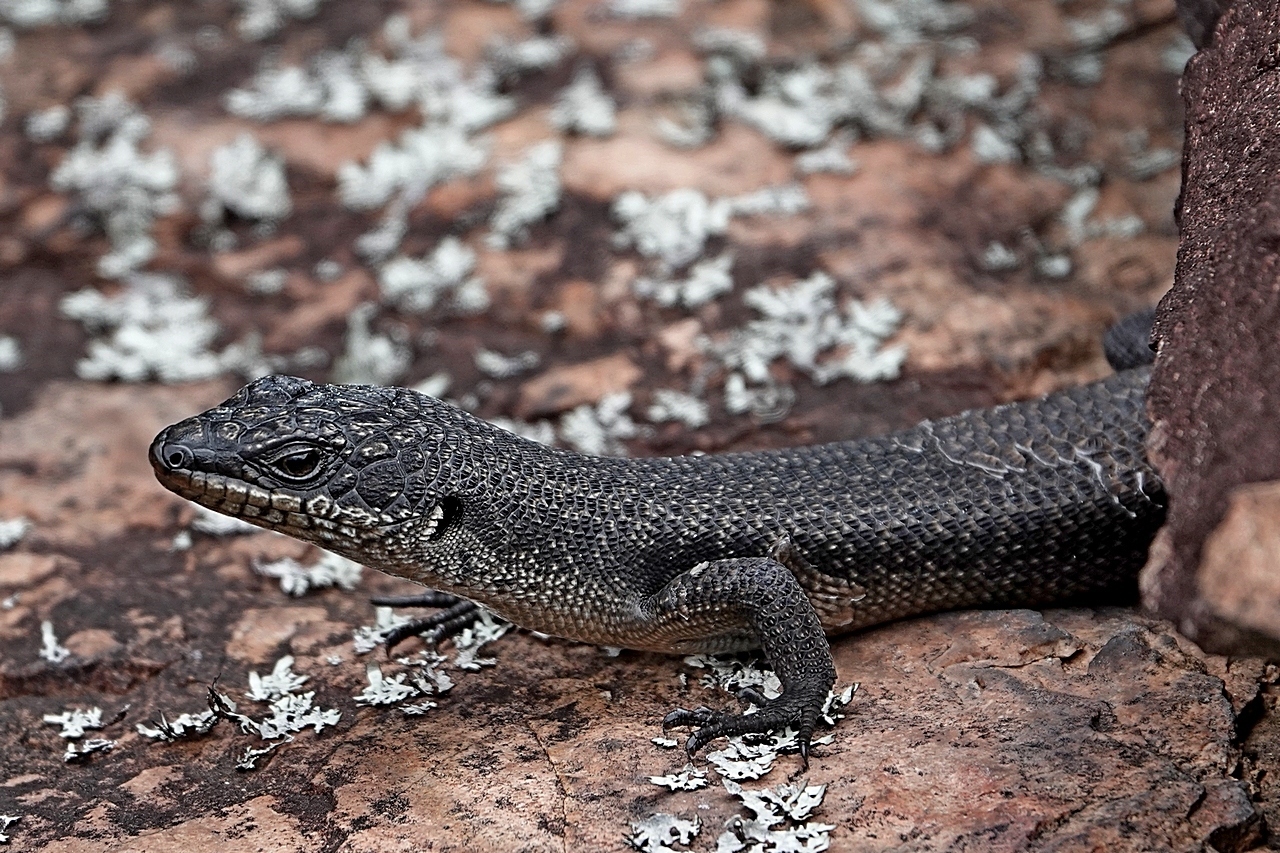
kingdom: Animalia
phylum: Chordata
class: Squamata
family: Scincidae
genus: Egernia
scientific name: Egernia saxatilis
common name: Black crevice-skink
